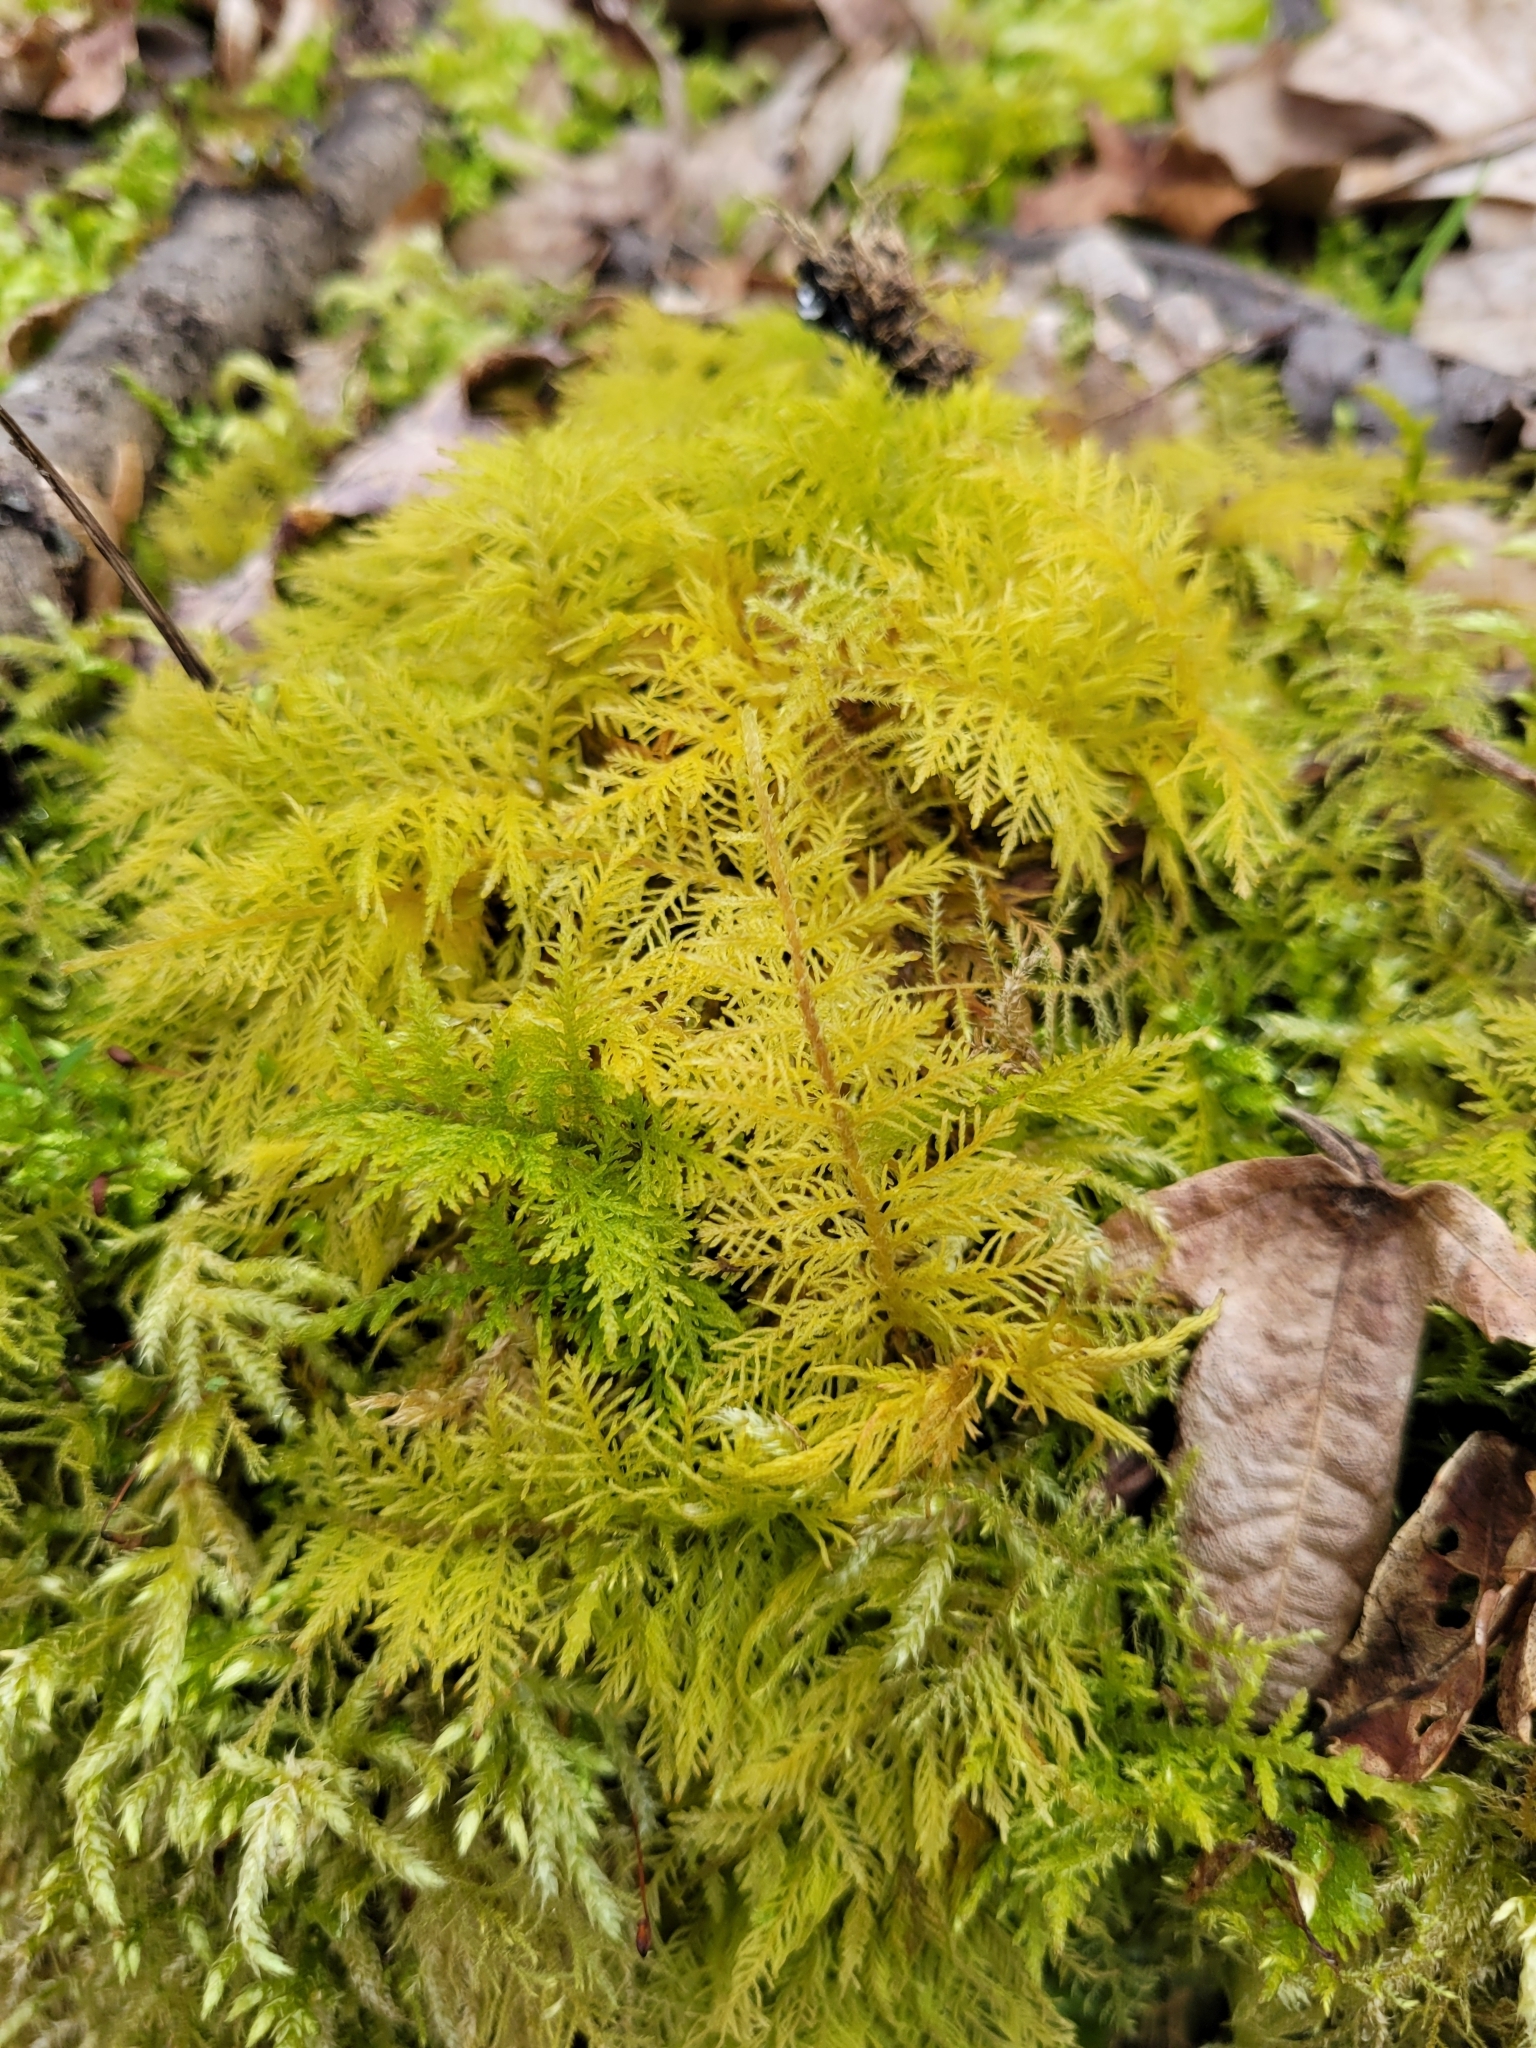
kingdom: Plantae
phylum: Bryophyta
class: Bryopsida
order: Hypnales
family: Thuidiaceae
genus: Thuidium
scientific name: Thuidium tamariscinum
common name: Common tamarisk-moss
